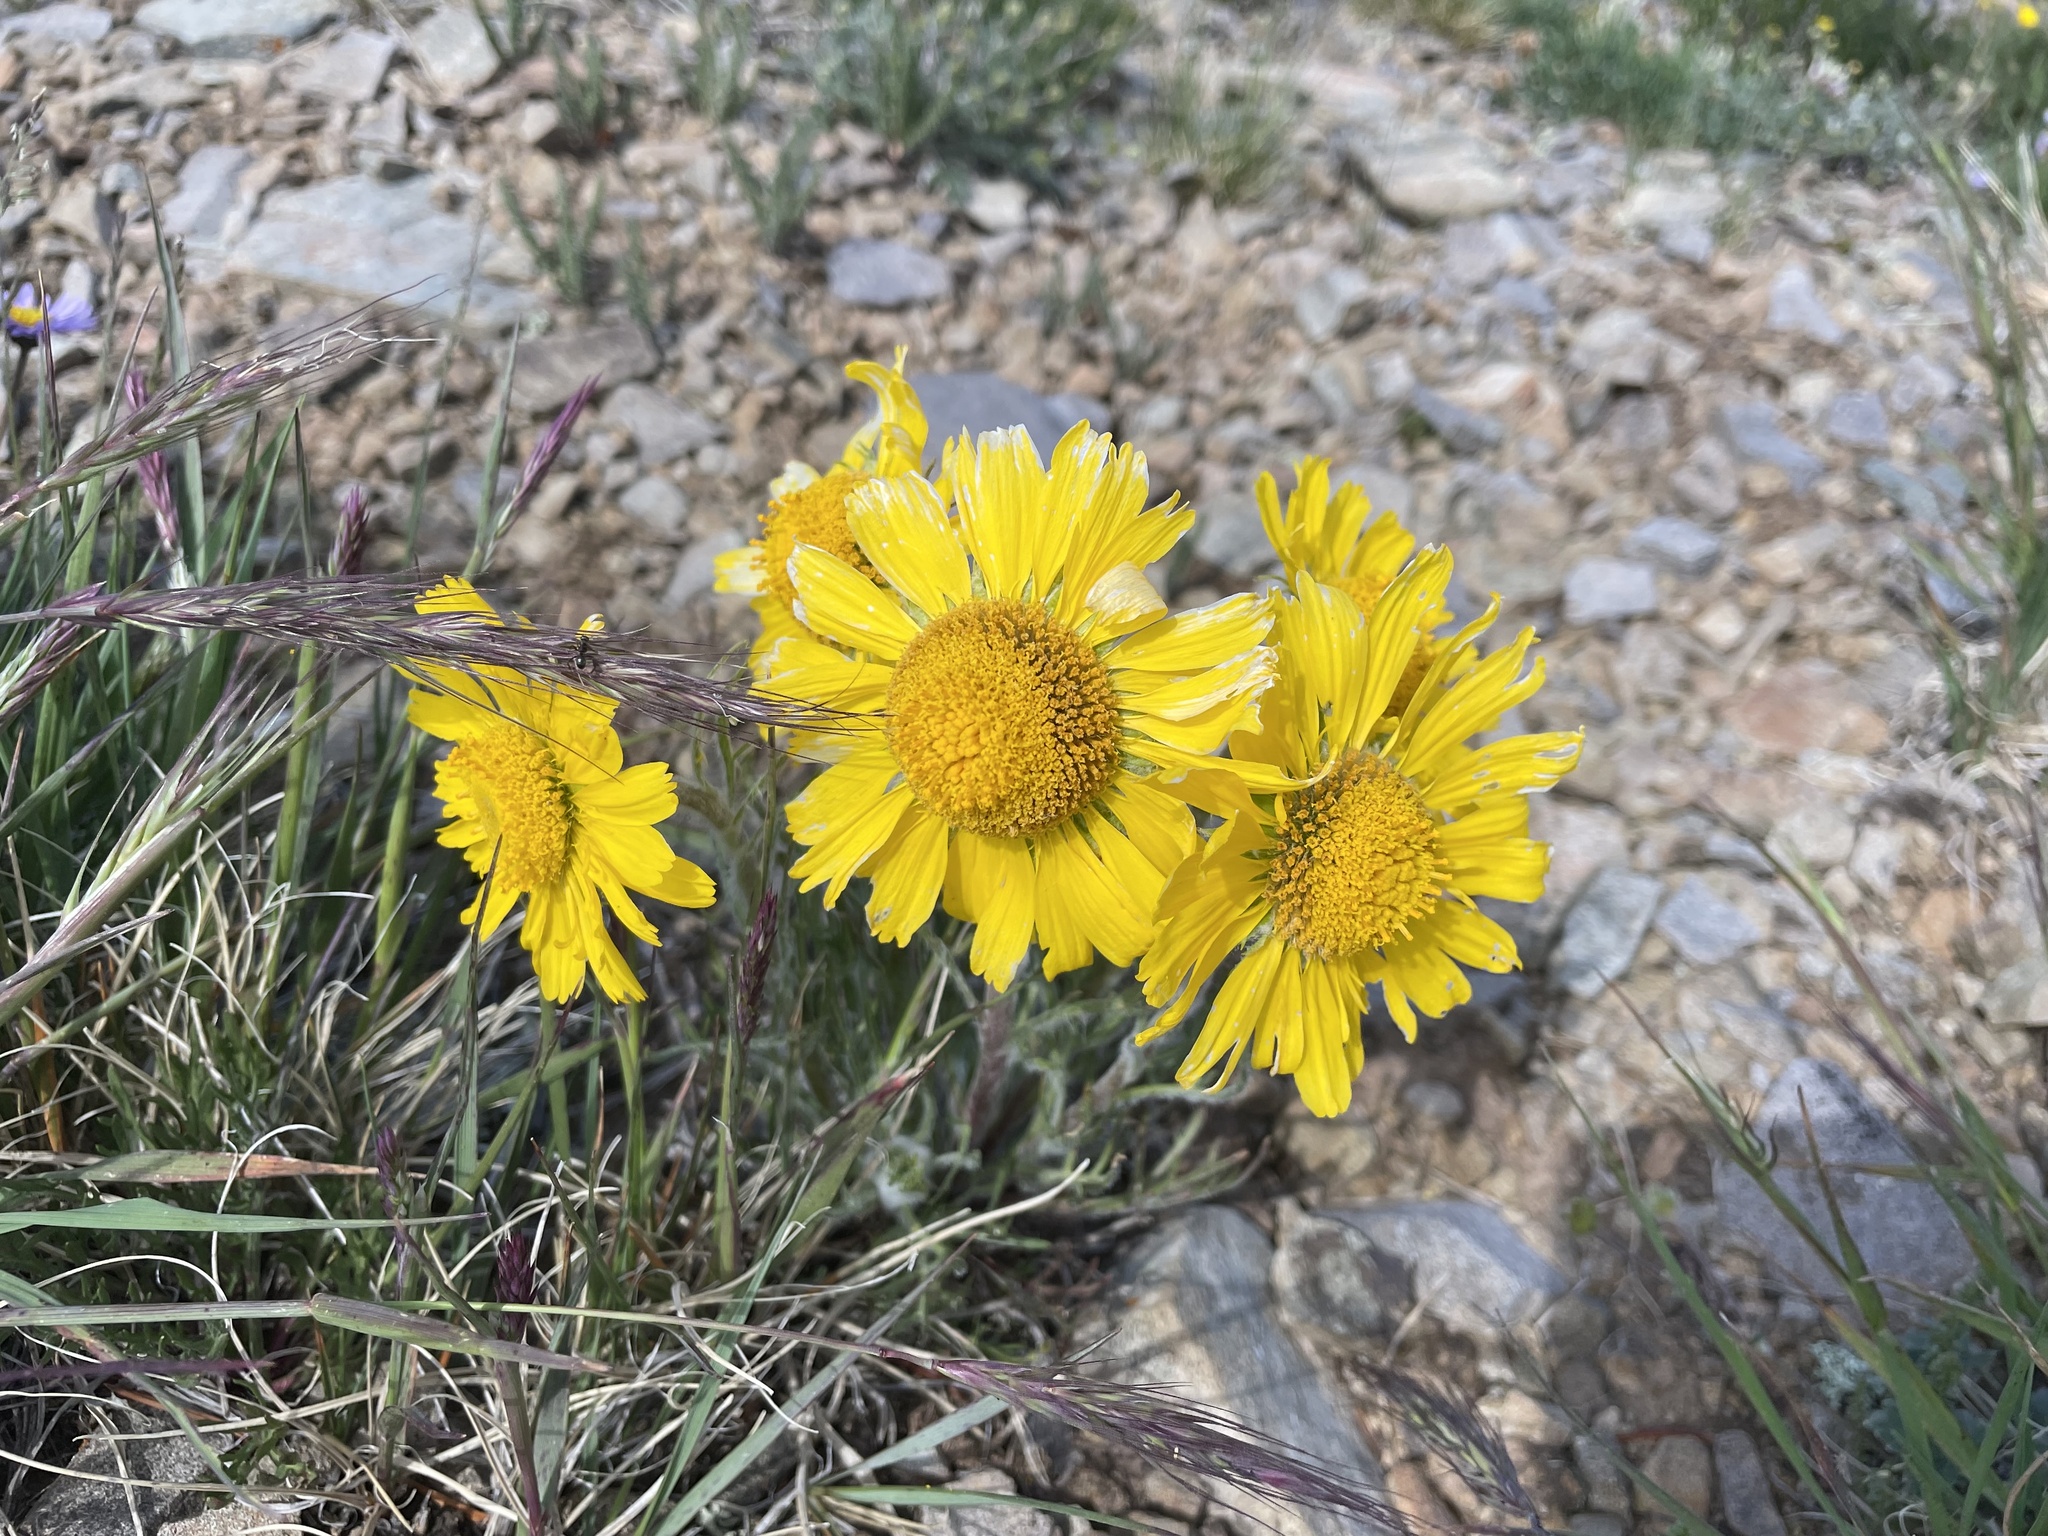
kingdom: Plantae
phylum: Tracheophyta
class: Magnoliopsida
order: Asterales
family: Asteraceae
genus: Hymenoxys
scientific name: Hymenoxys grandiflora
